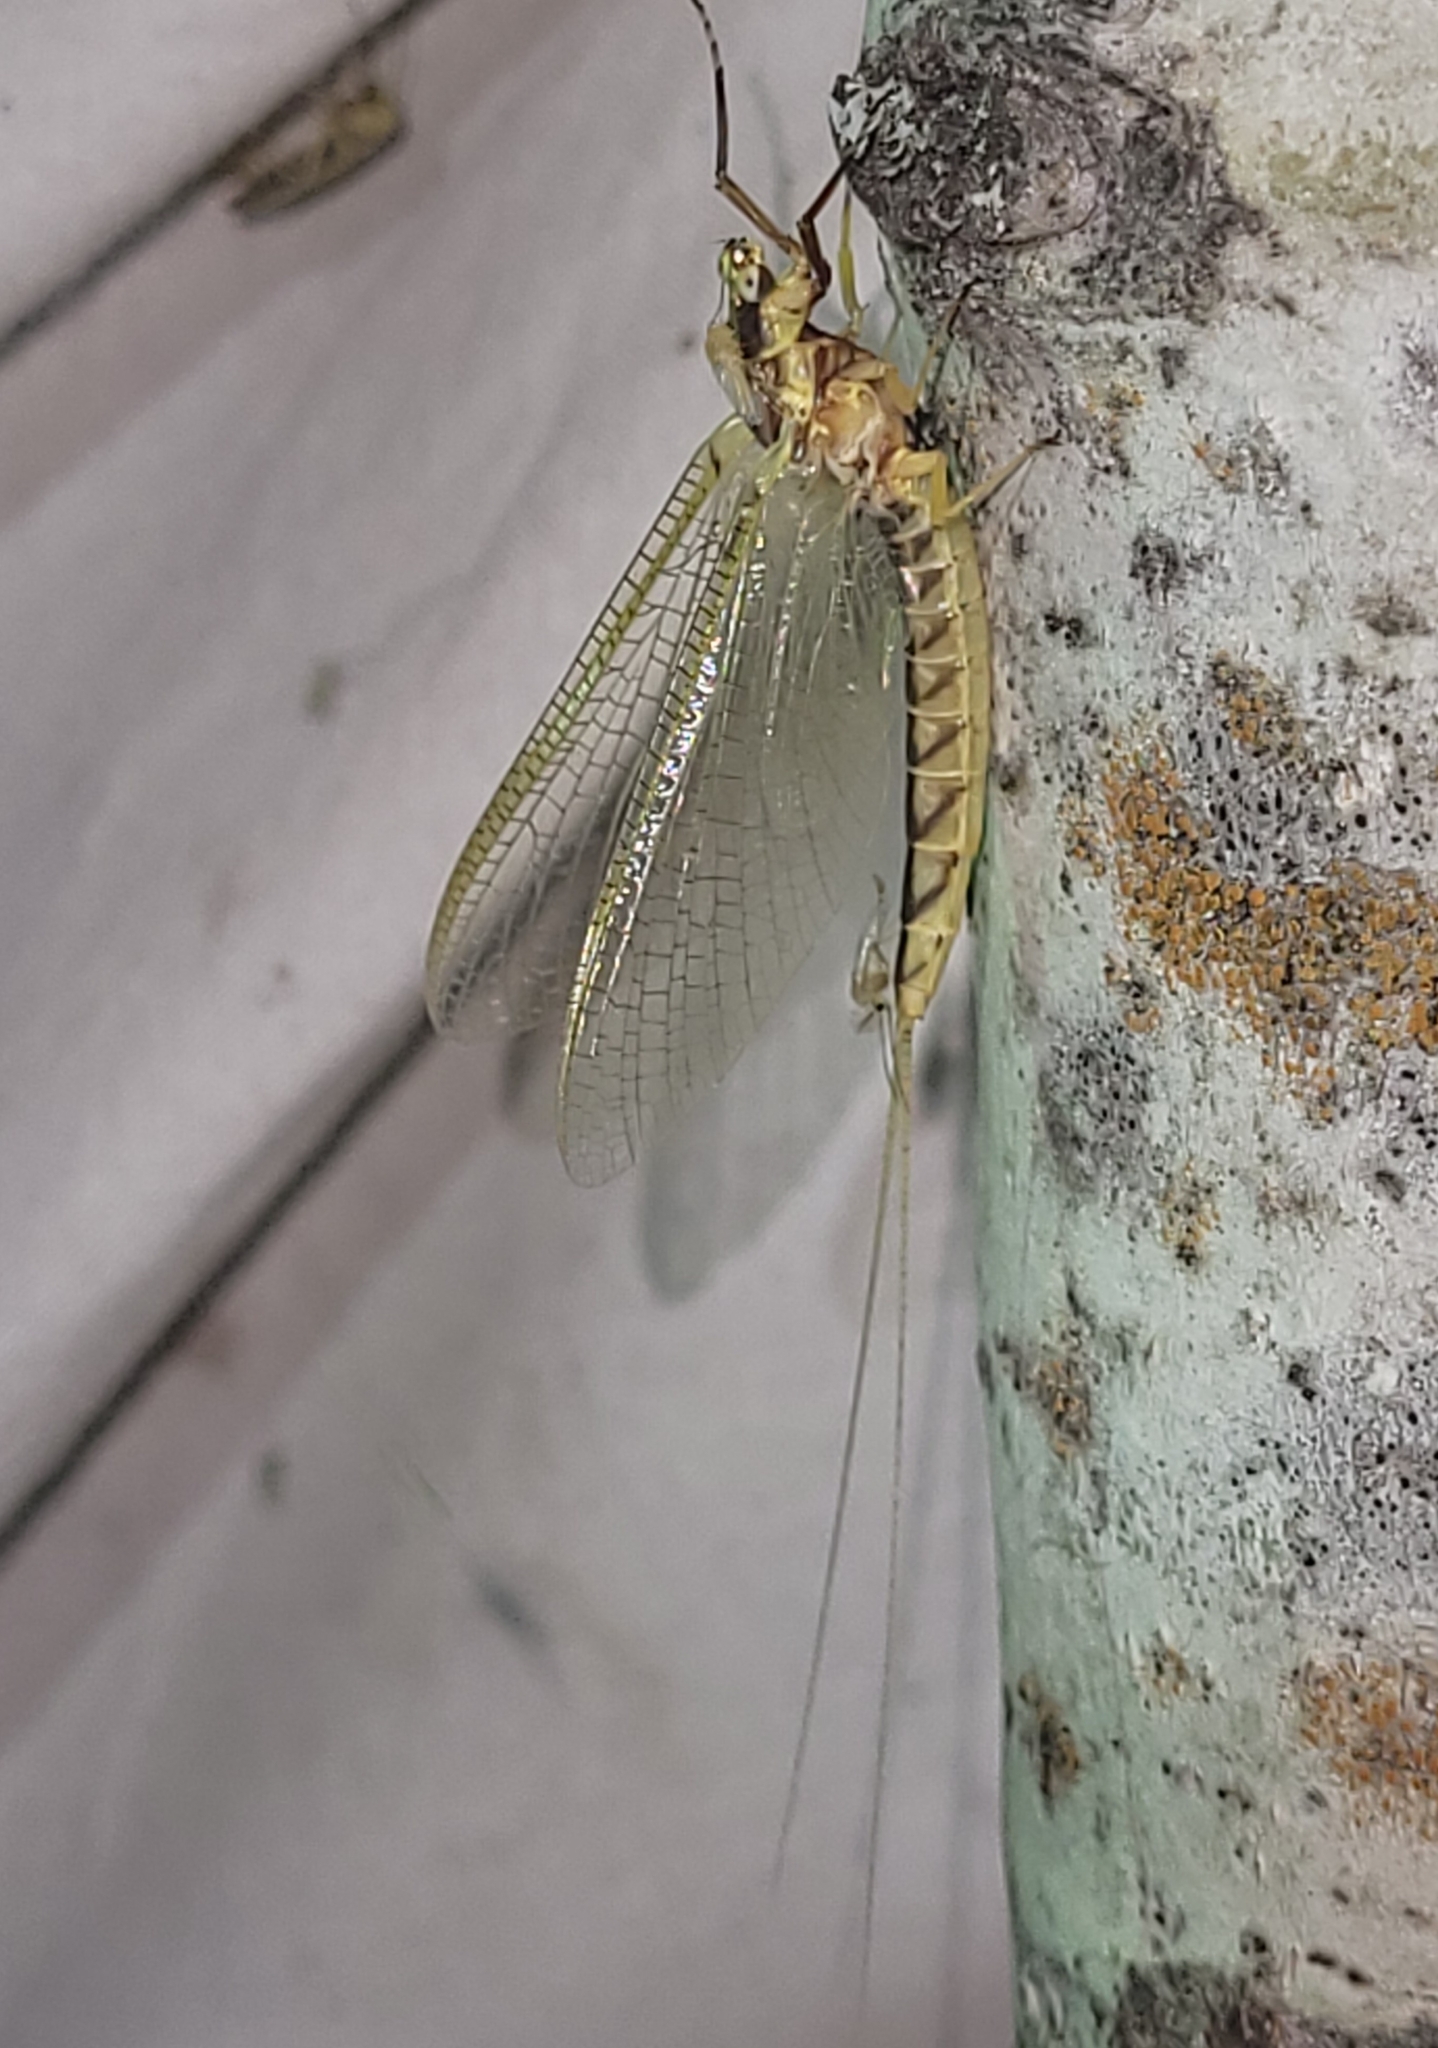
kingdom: Animalia
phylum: Arthropoda
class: Insecta
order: Ephemeroptera
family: Ephemeridae
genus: Hexagenia
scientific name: Hexagenia limbata
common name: Giant mayfly
